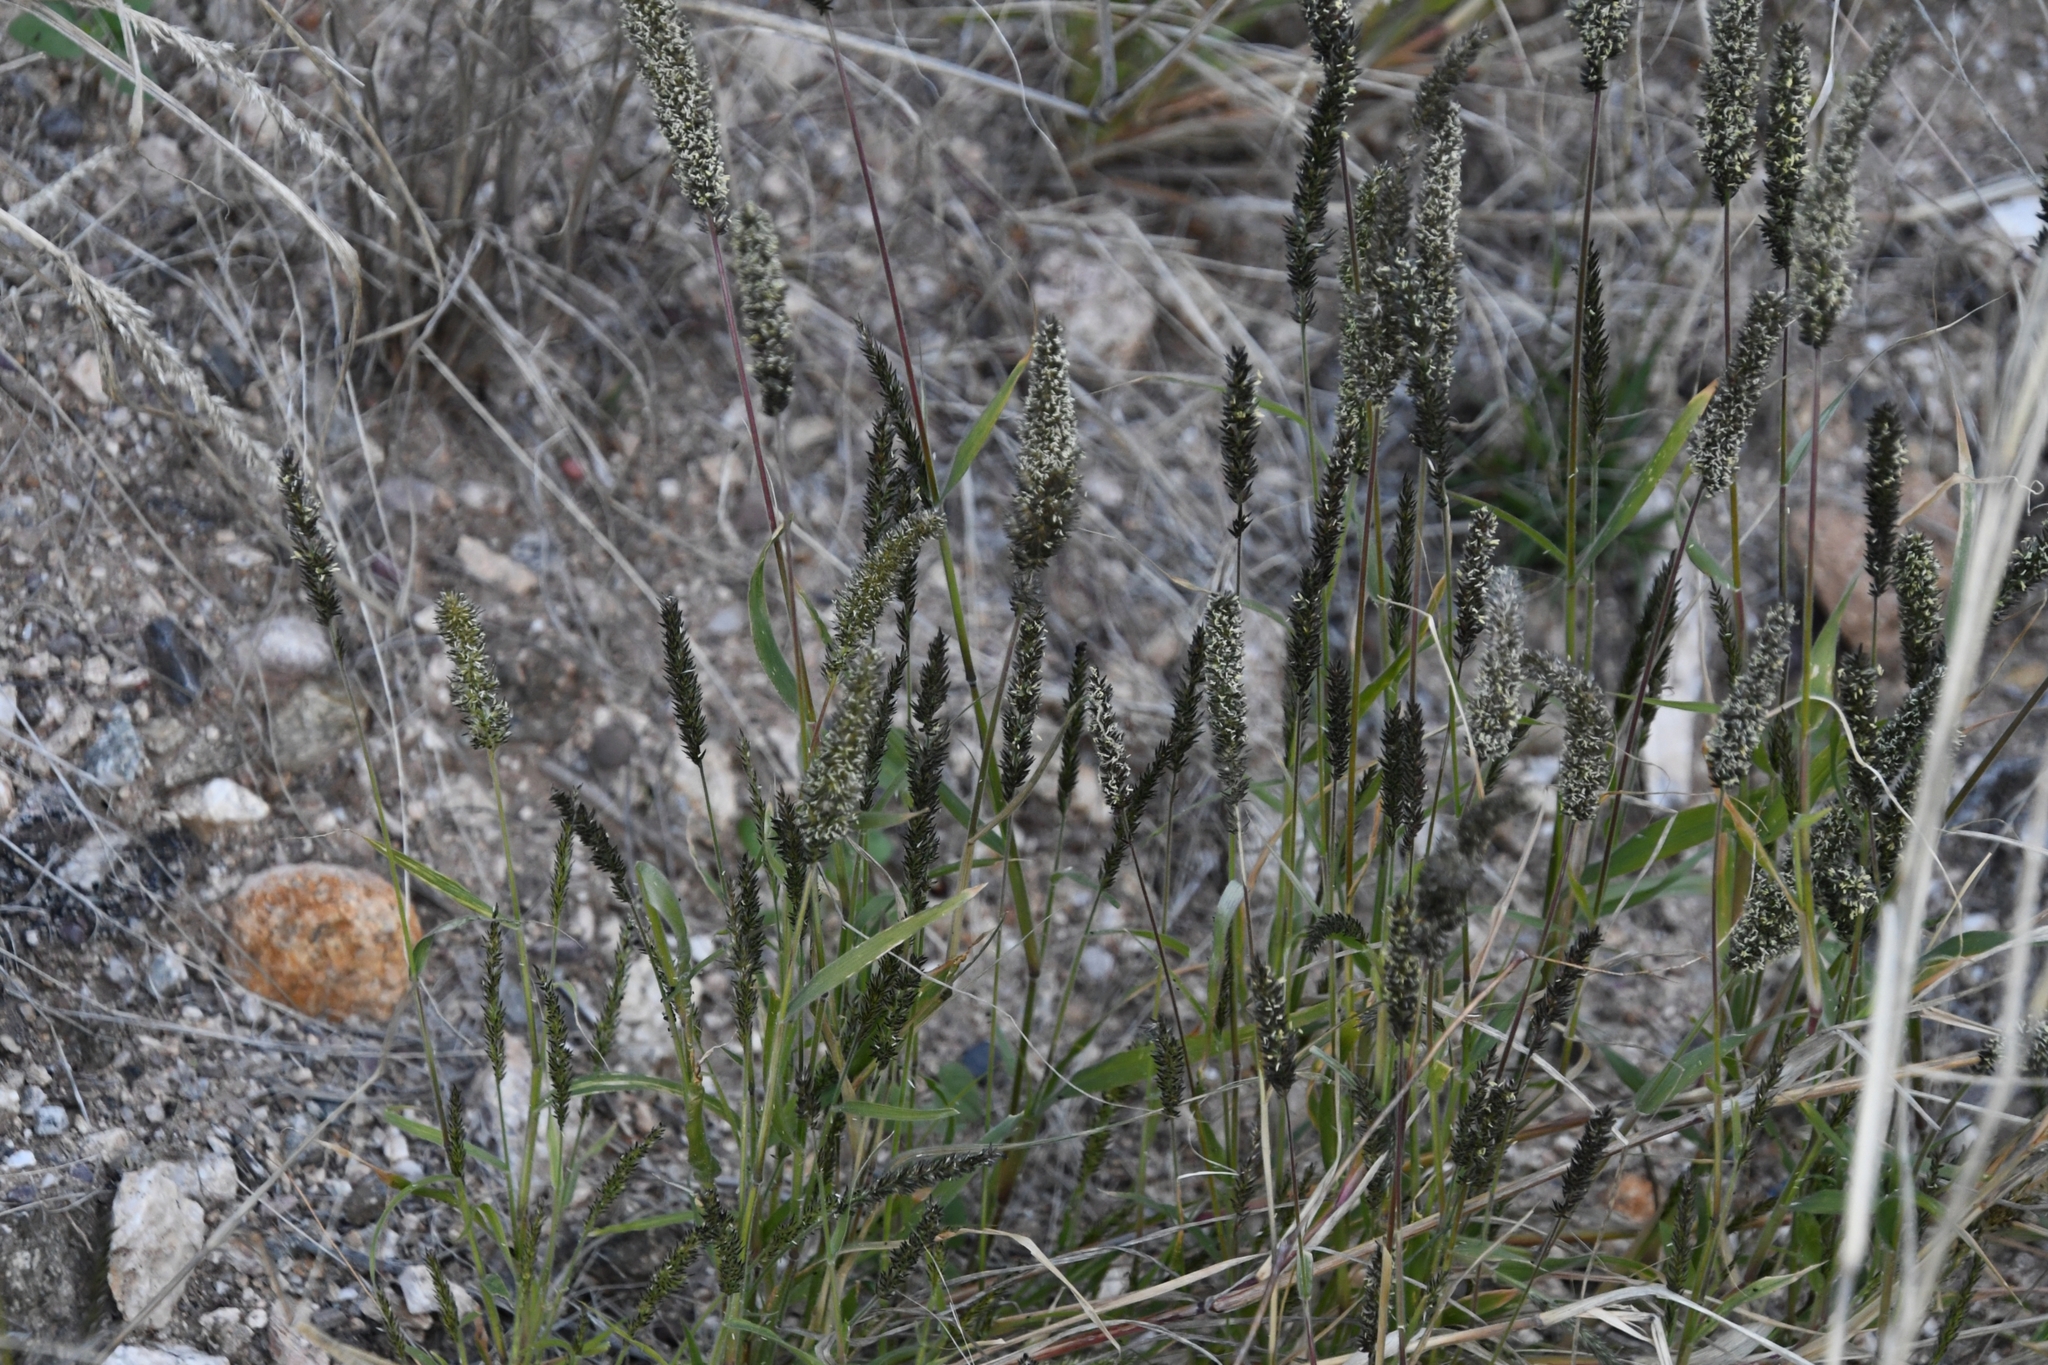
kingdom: Plantae
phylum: Tracheophyta
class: Liliopsida
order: Poales
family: Poaceae
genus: Enneapogon
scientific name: Enneapogon cenchroides
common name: Soft feather pappusgrass
